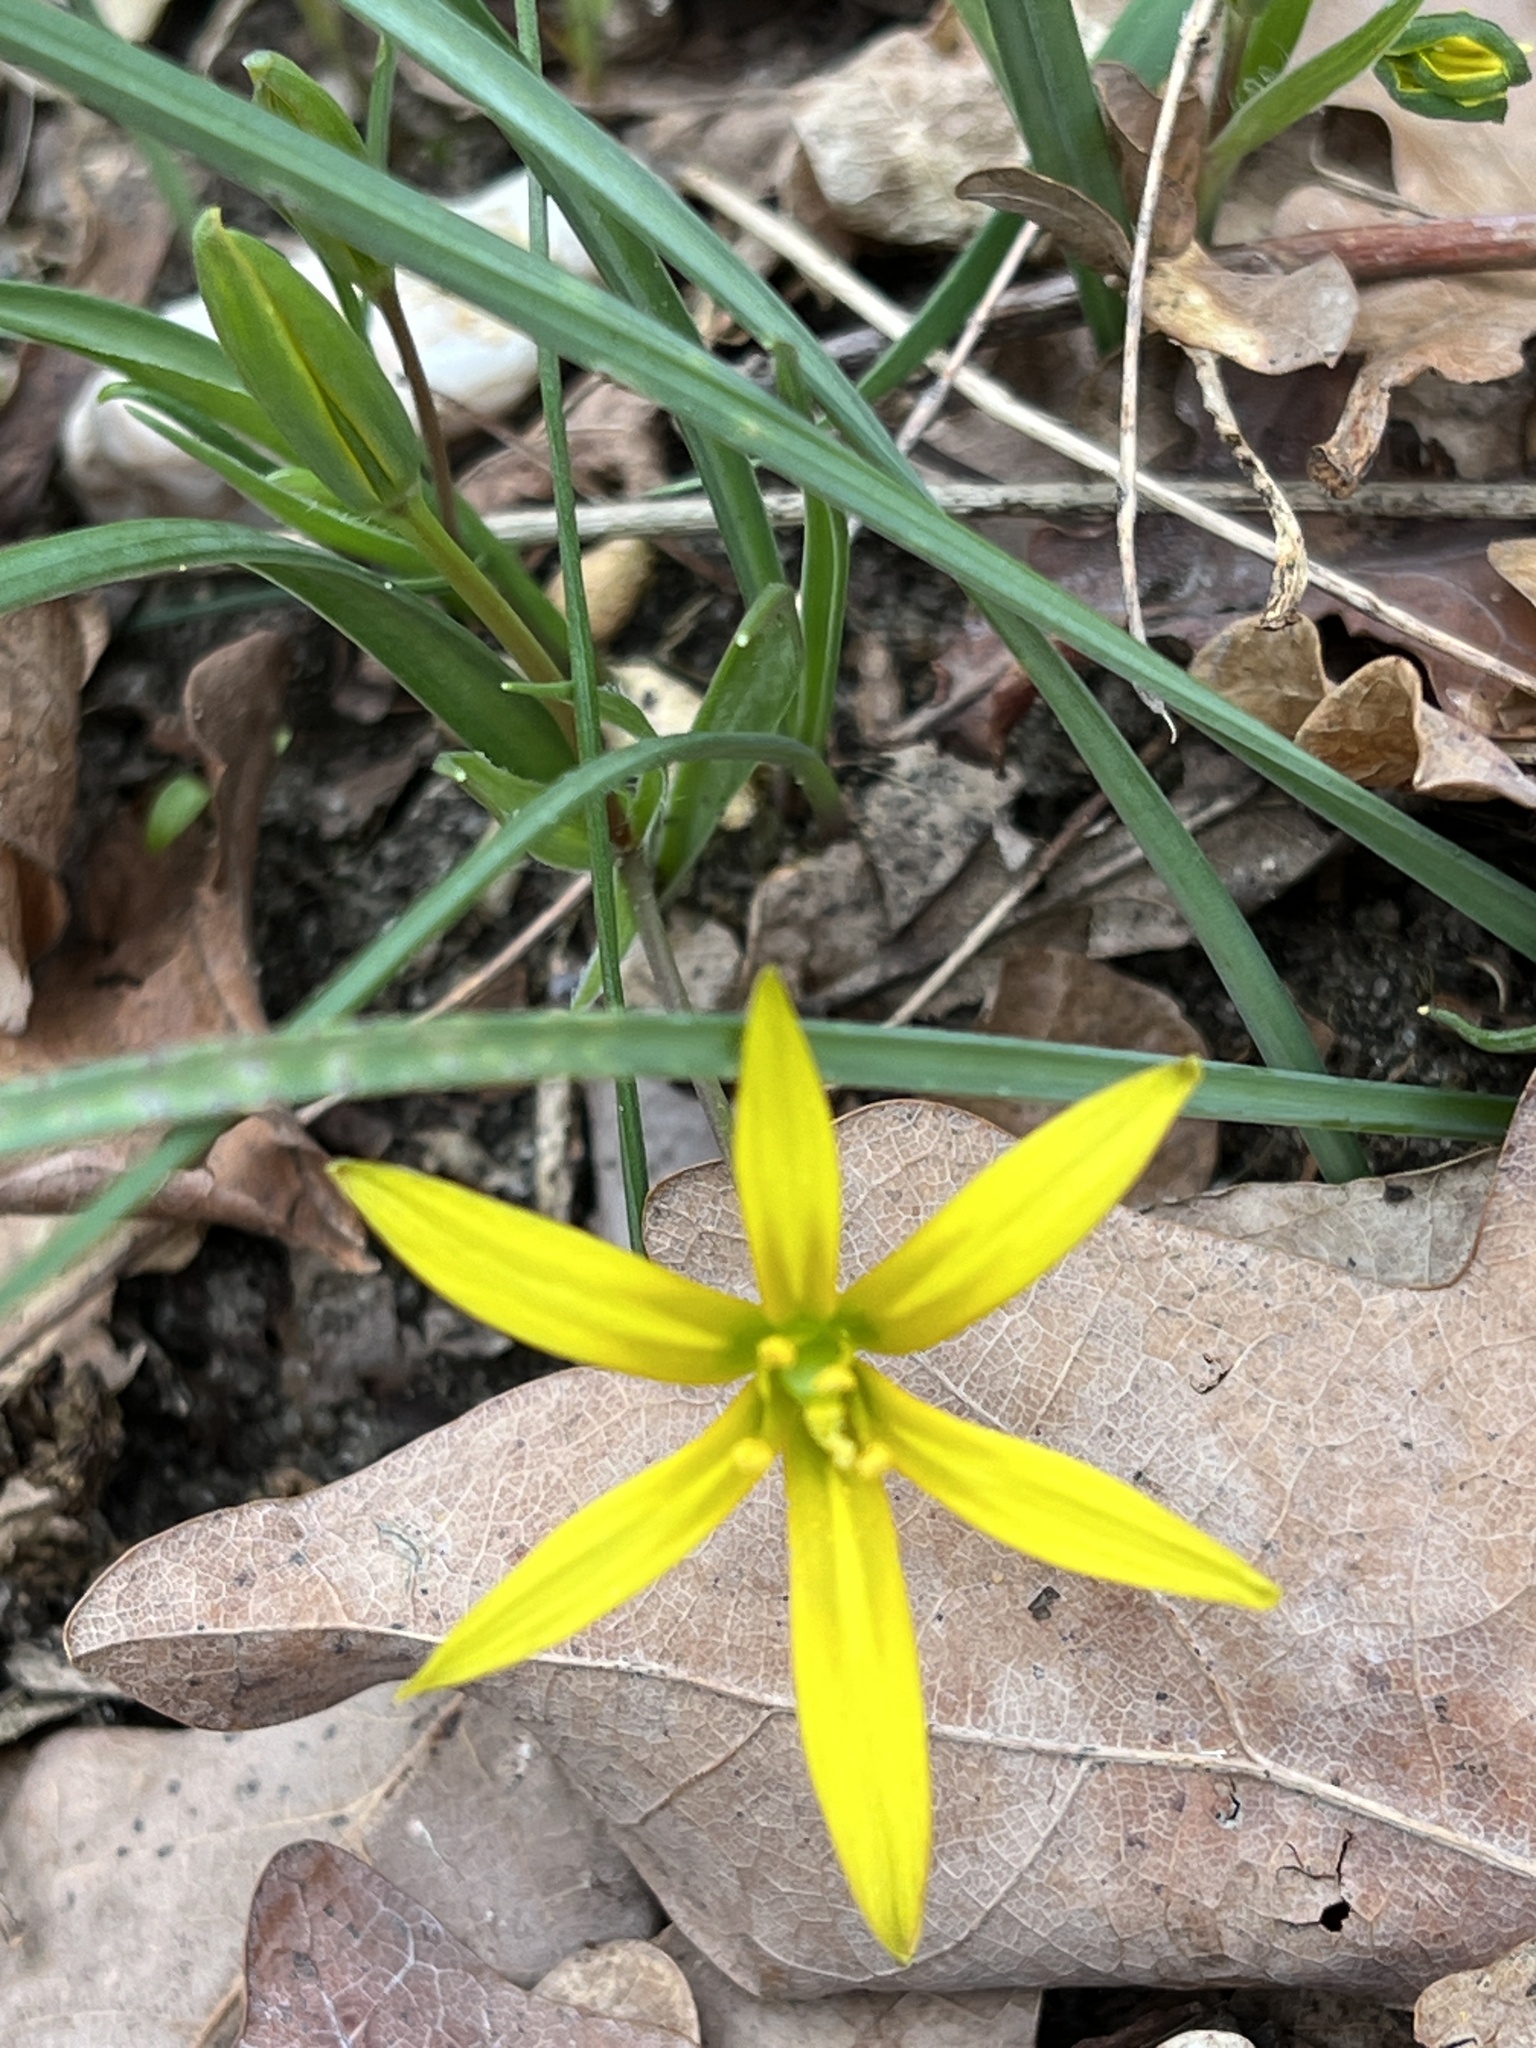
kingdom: Plantae
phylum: Tracheophyta
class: Liliopsida
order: Liliales
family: Liliaceae
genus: Gagea
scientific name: Gagea pratensis
